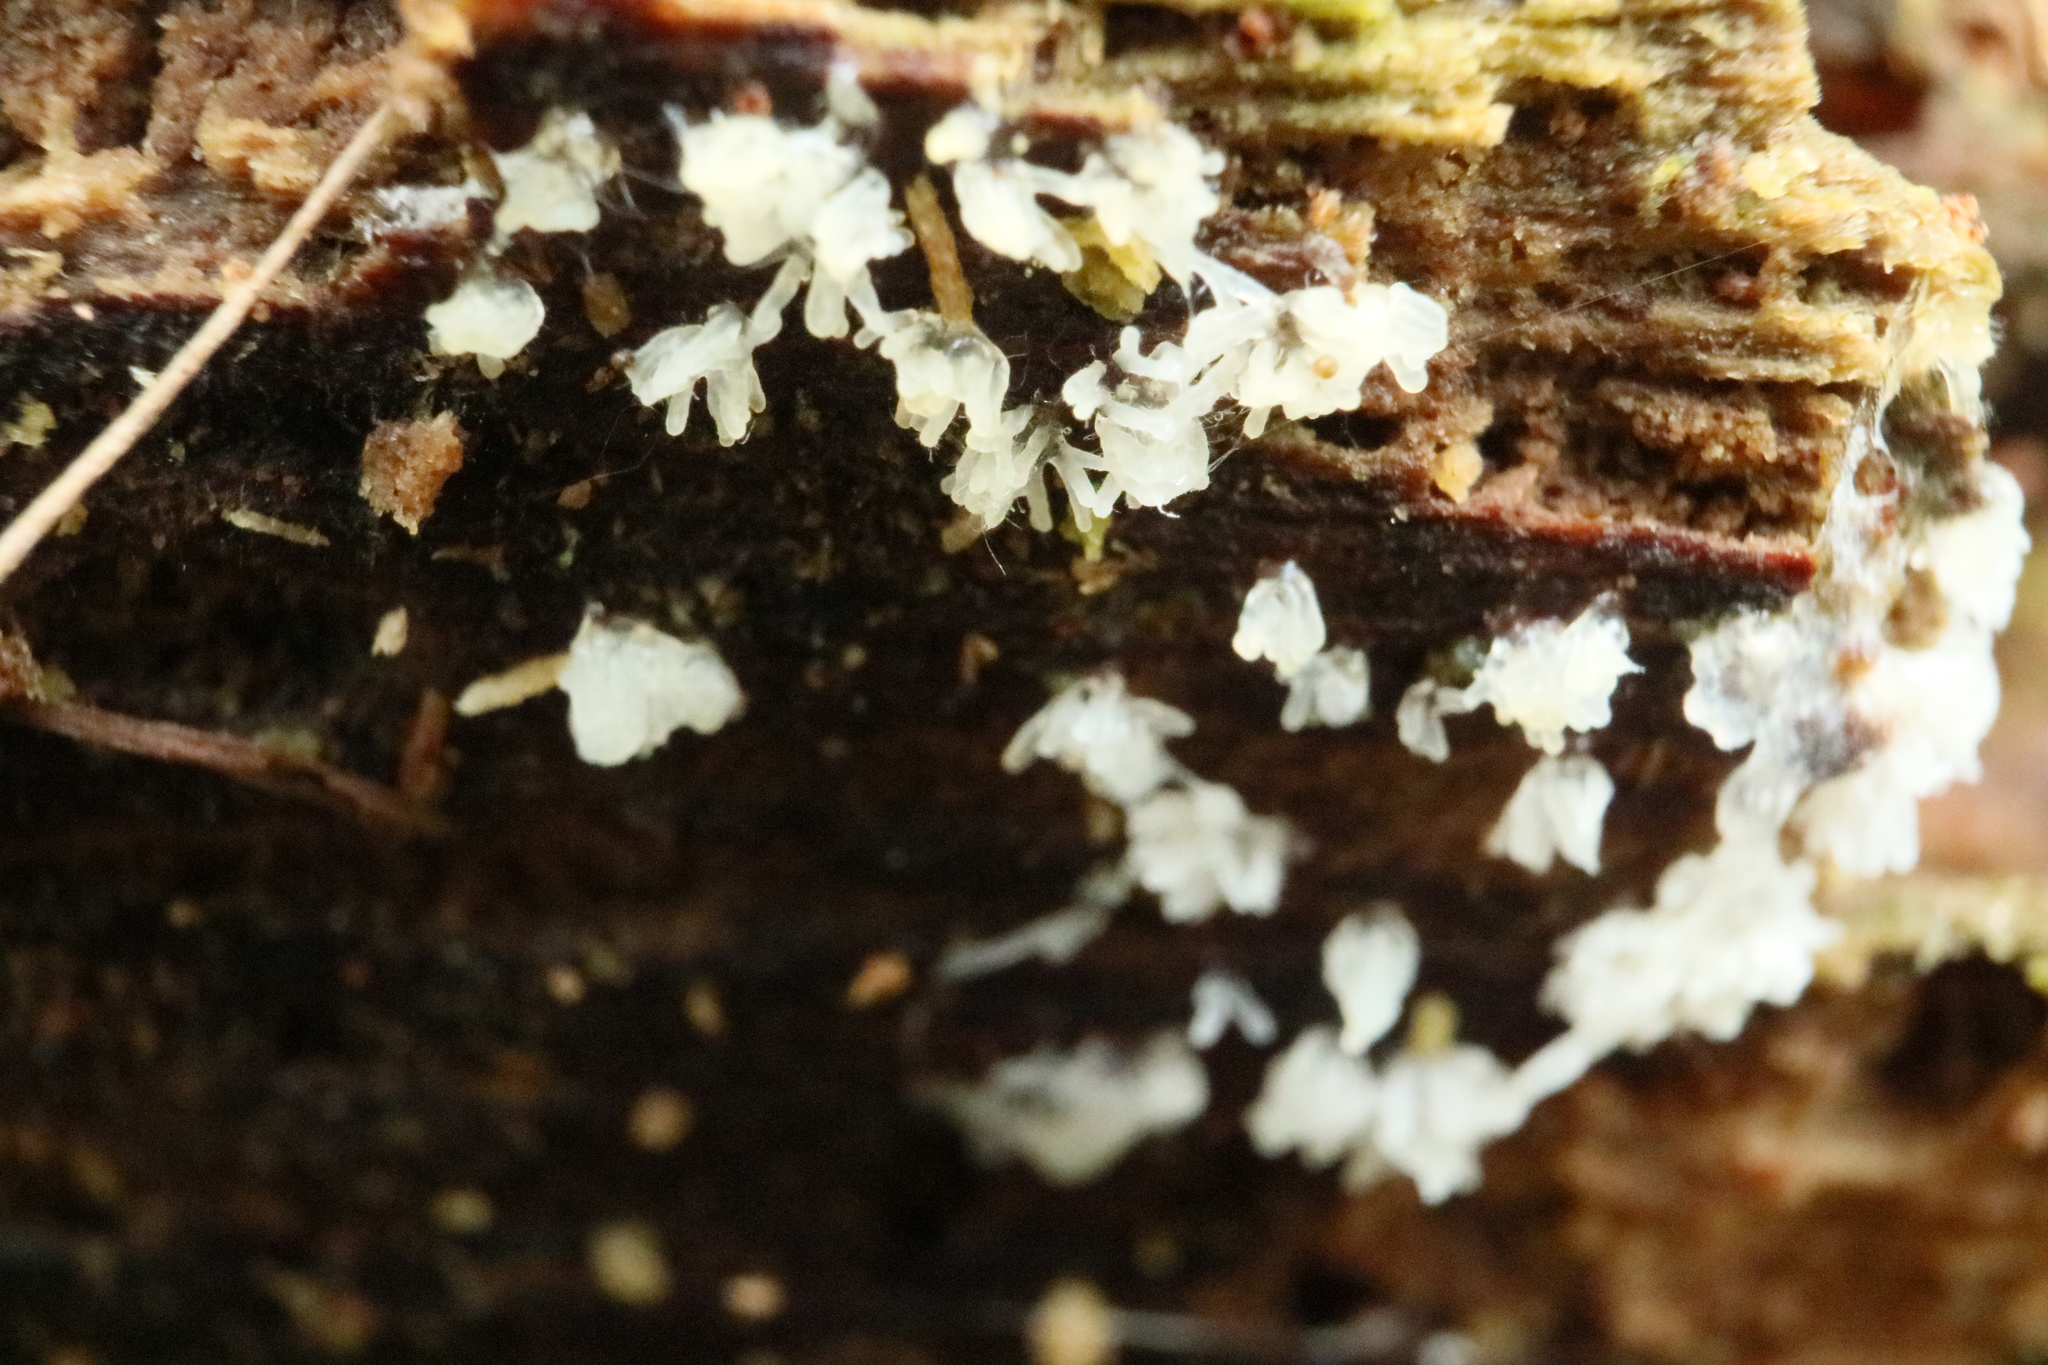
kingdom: Protozoa
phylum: Mycetozoa
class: Protosteliomycetes
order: Ceratiomyxales
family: Ceratiomyxaceae
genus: Ceratiomyxa
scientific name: Ceratiomyxa fruticulosa
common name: Honeycomb coral slime mold
